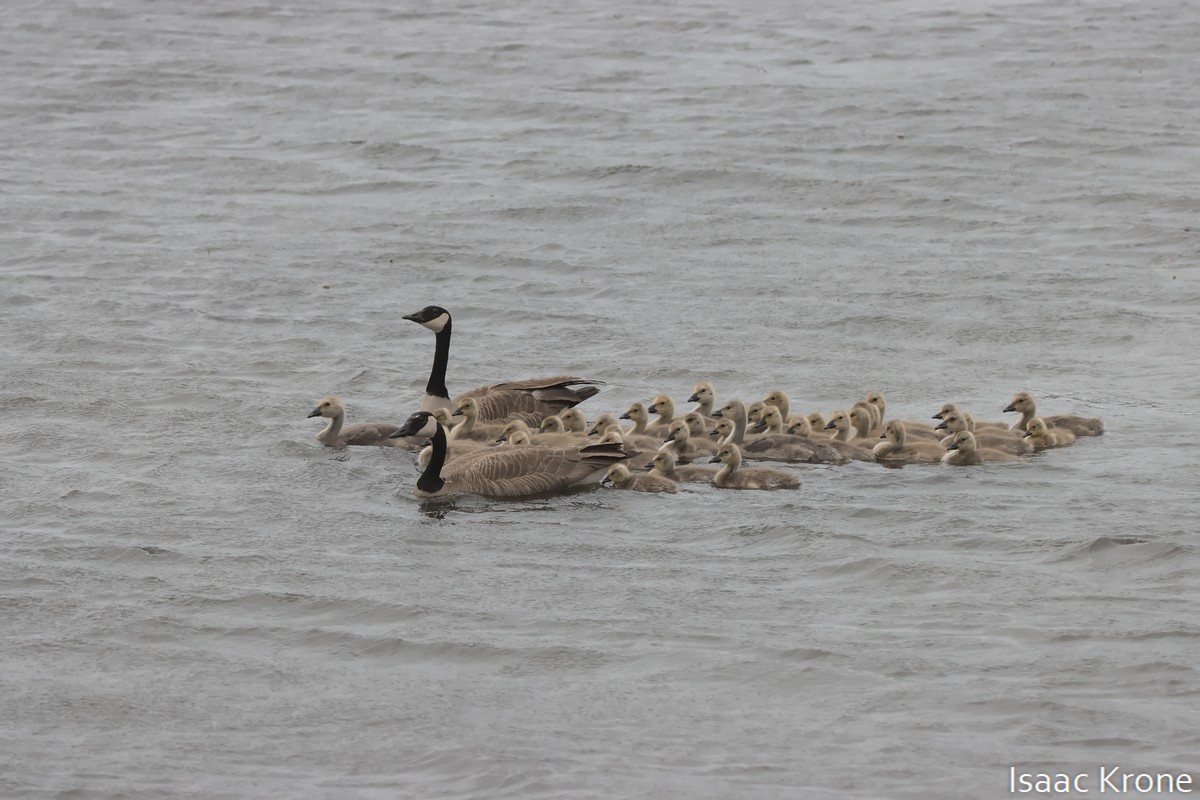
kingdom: Animalia
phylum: Chordata
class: Aves
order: Anseriformes
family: Anatidae
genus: Branta
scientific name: Branta canadensis
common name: Canada goose
